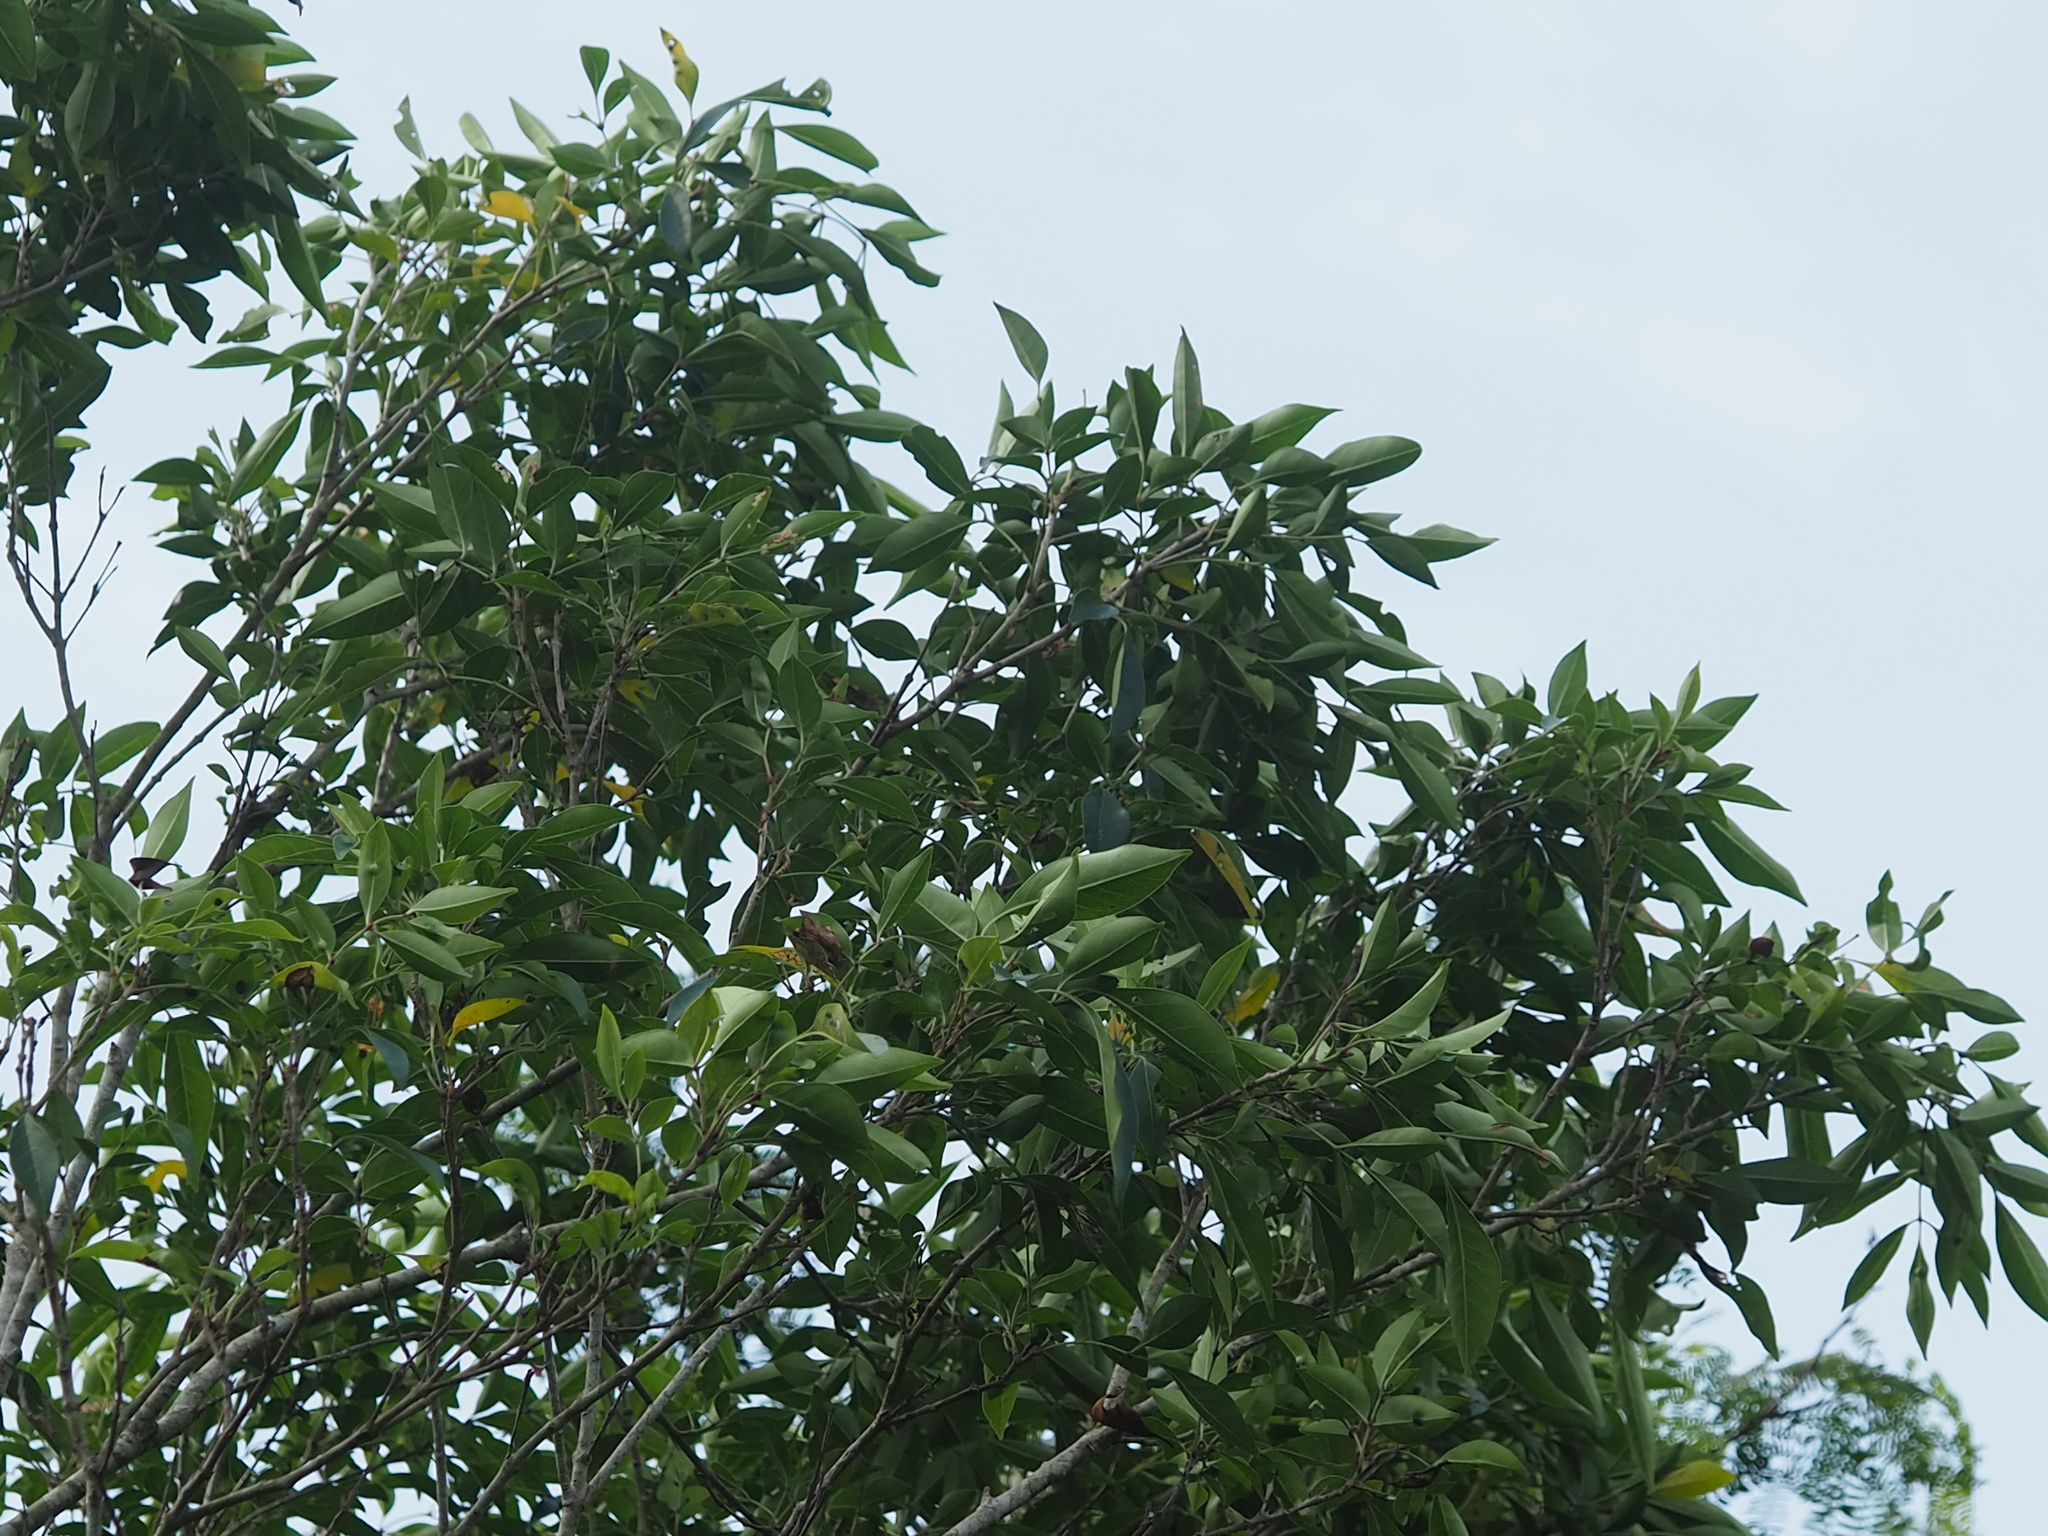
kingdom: Plantae
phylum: Tracheophyta
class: Magnoliopsida
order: Lamiales
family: Oleaceae
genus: Fraxinus
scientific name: Fraxinus griffithii
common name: Himalayan ash
